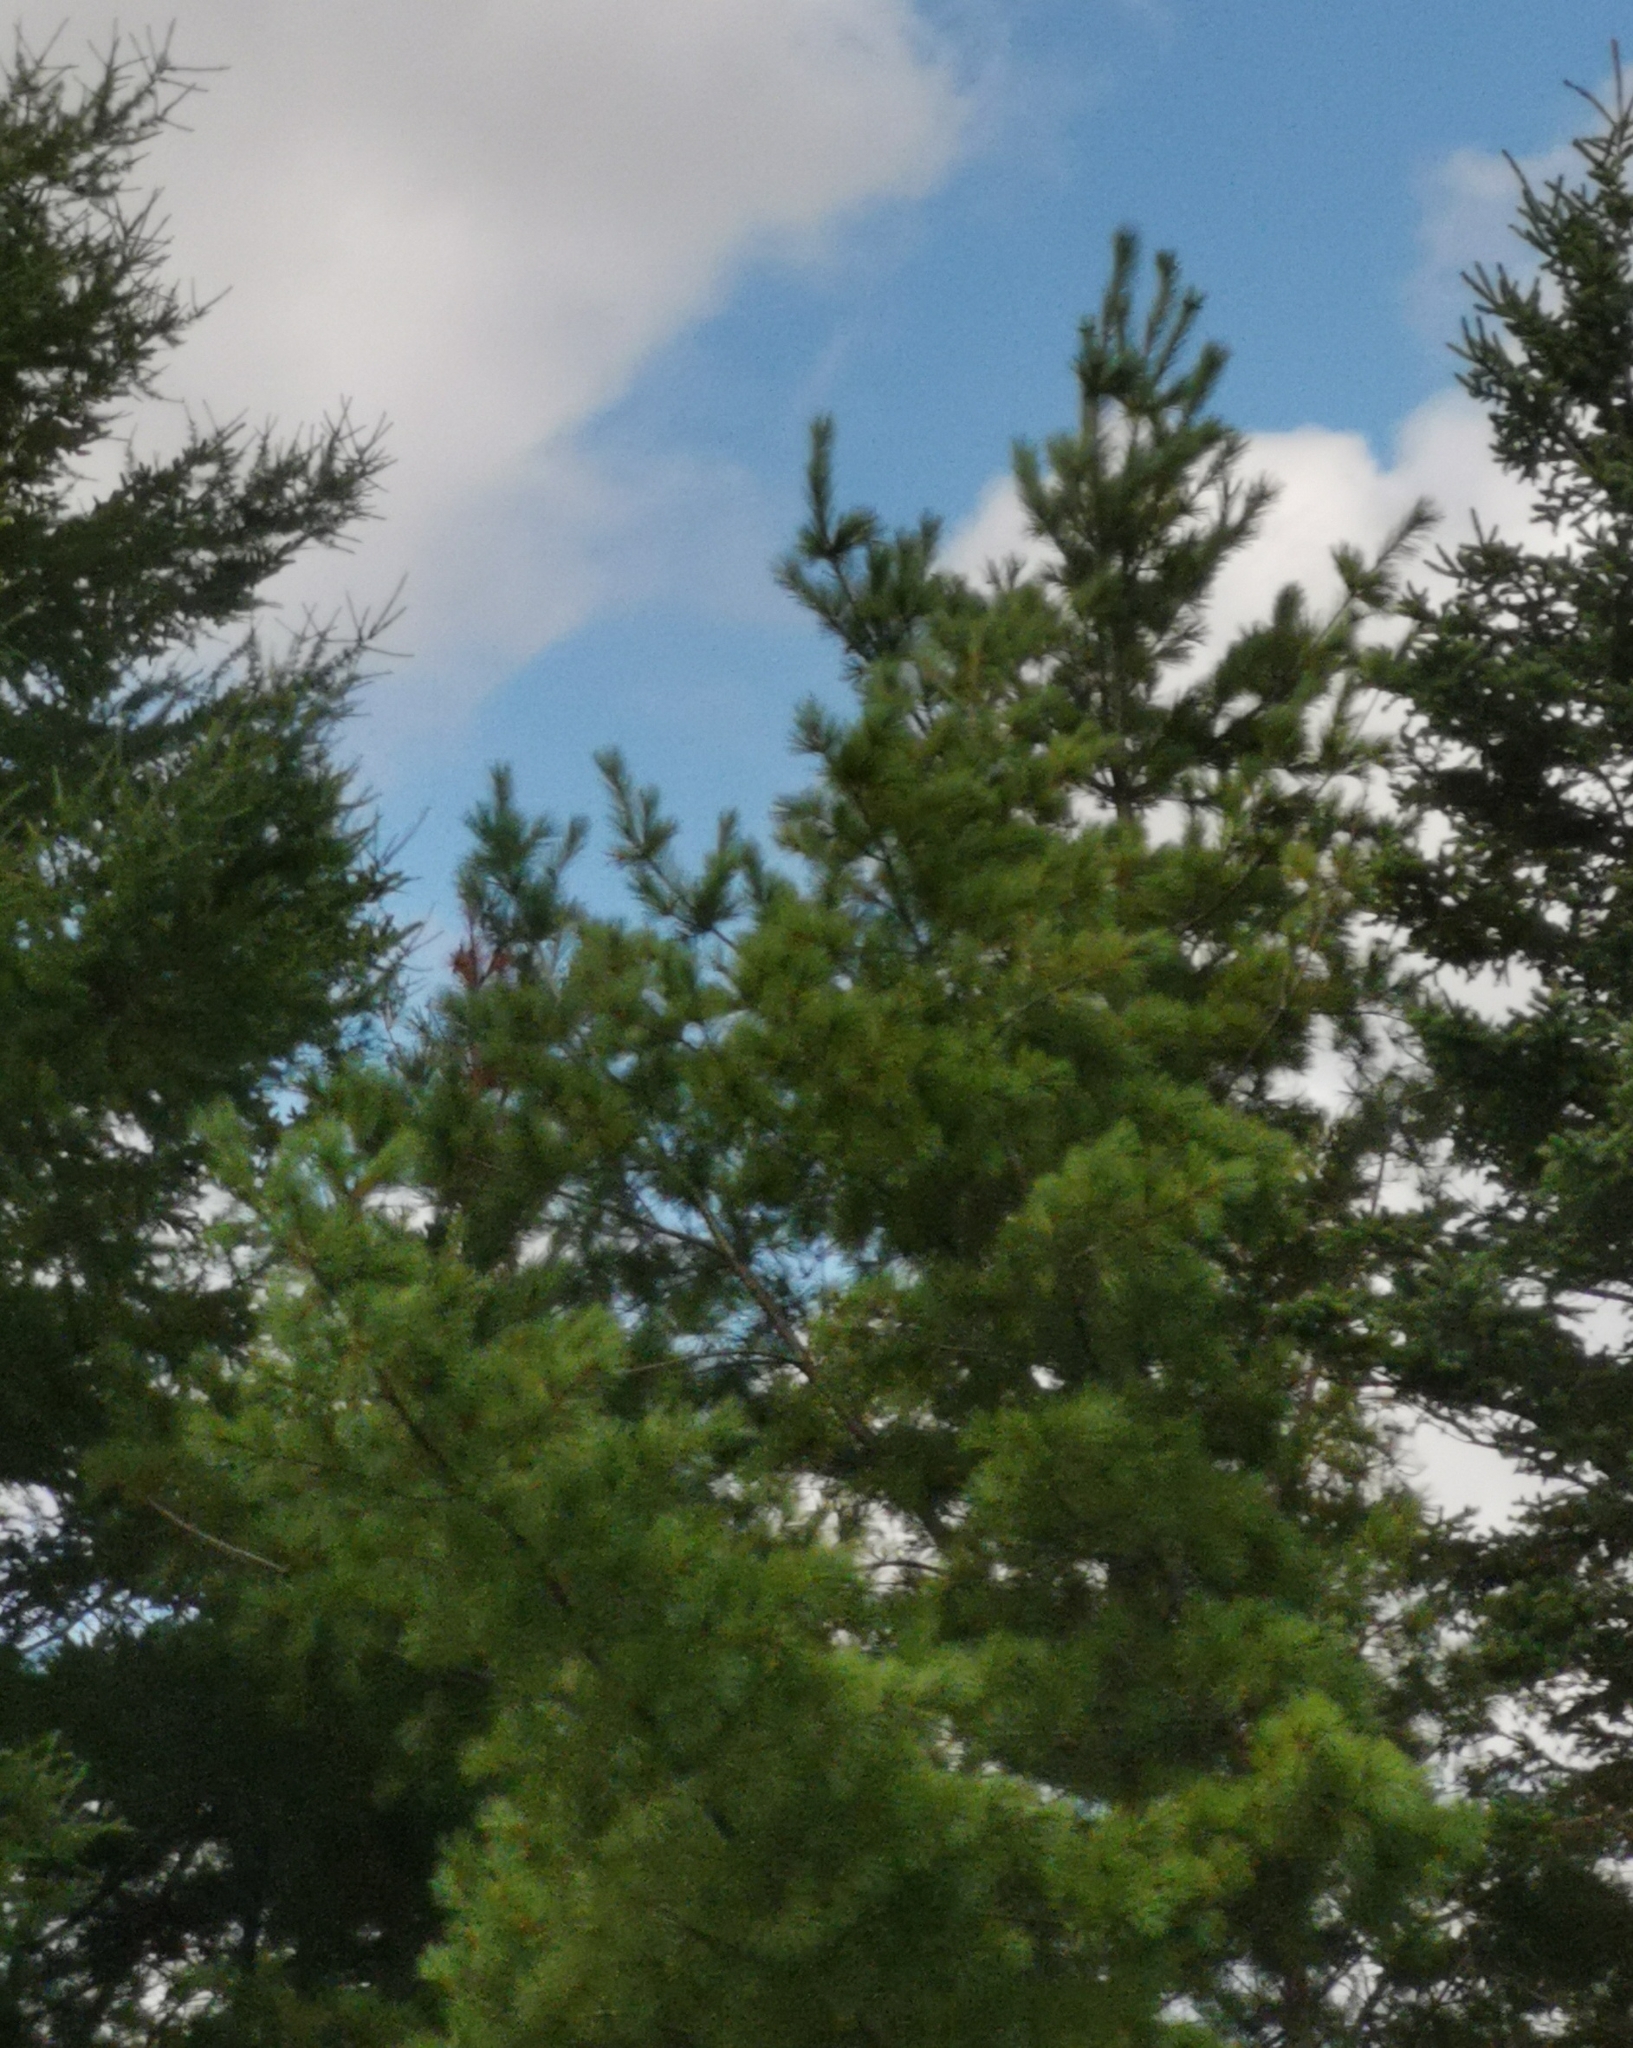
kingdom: Plantae
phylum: Tracheophyta
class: Pinopsida
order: Pinales
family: Pinaceae
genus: Pinus
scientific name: Pinus strobus
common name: Weymouth pine
